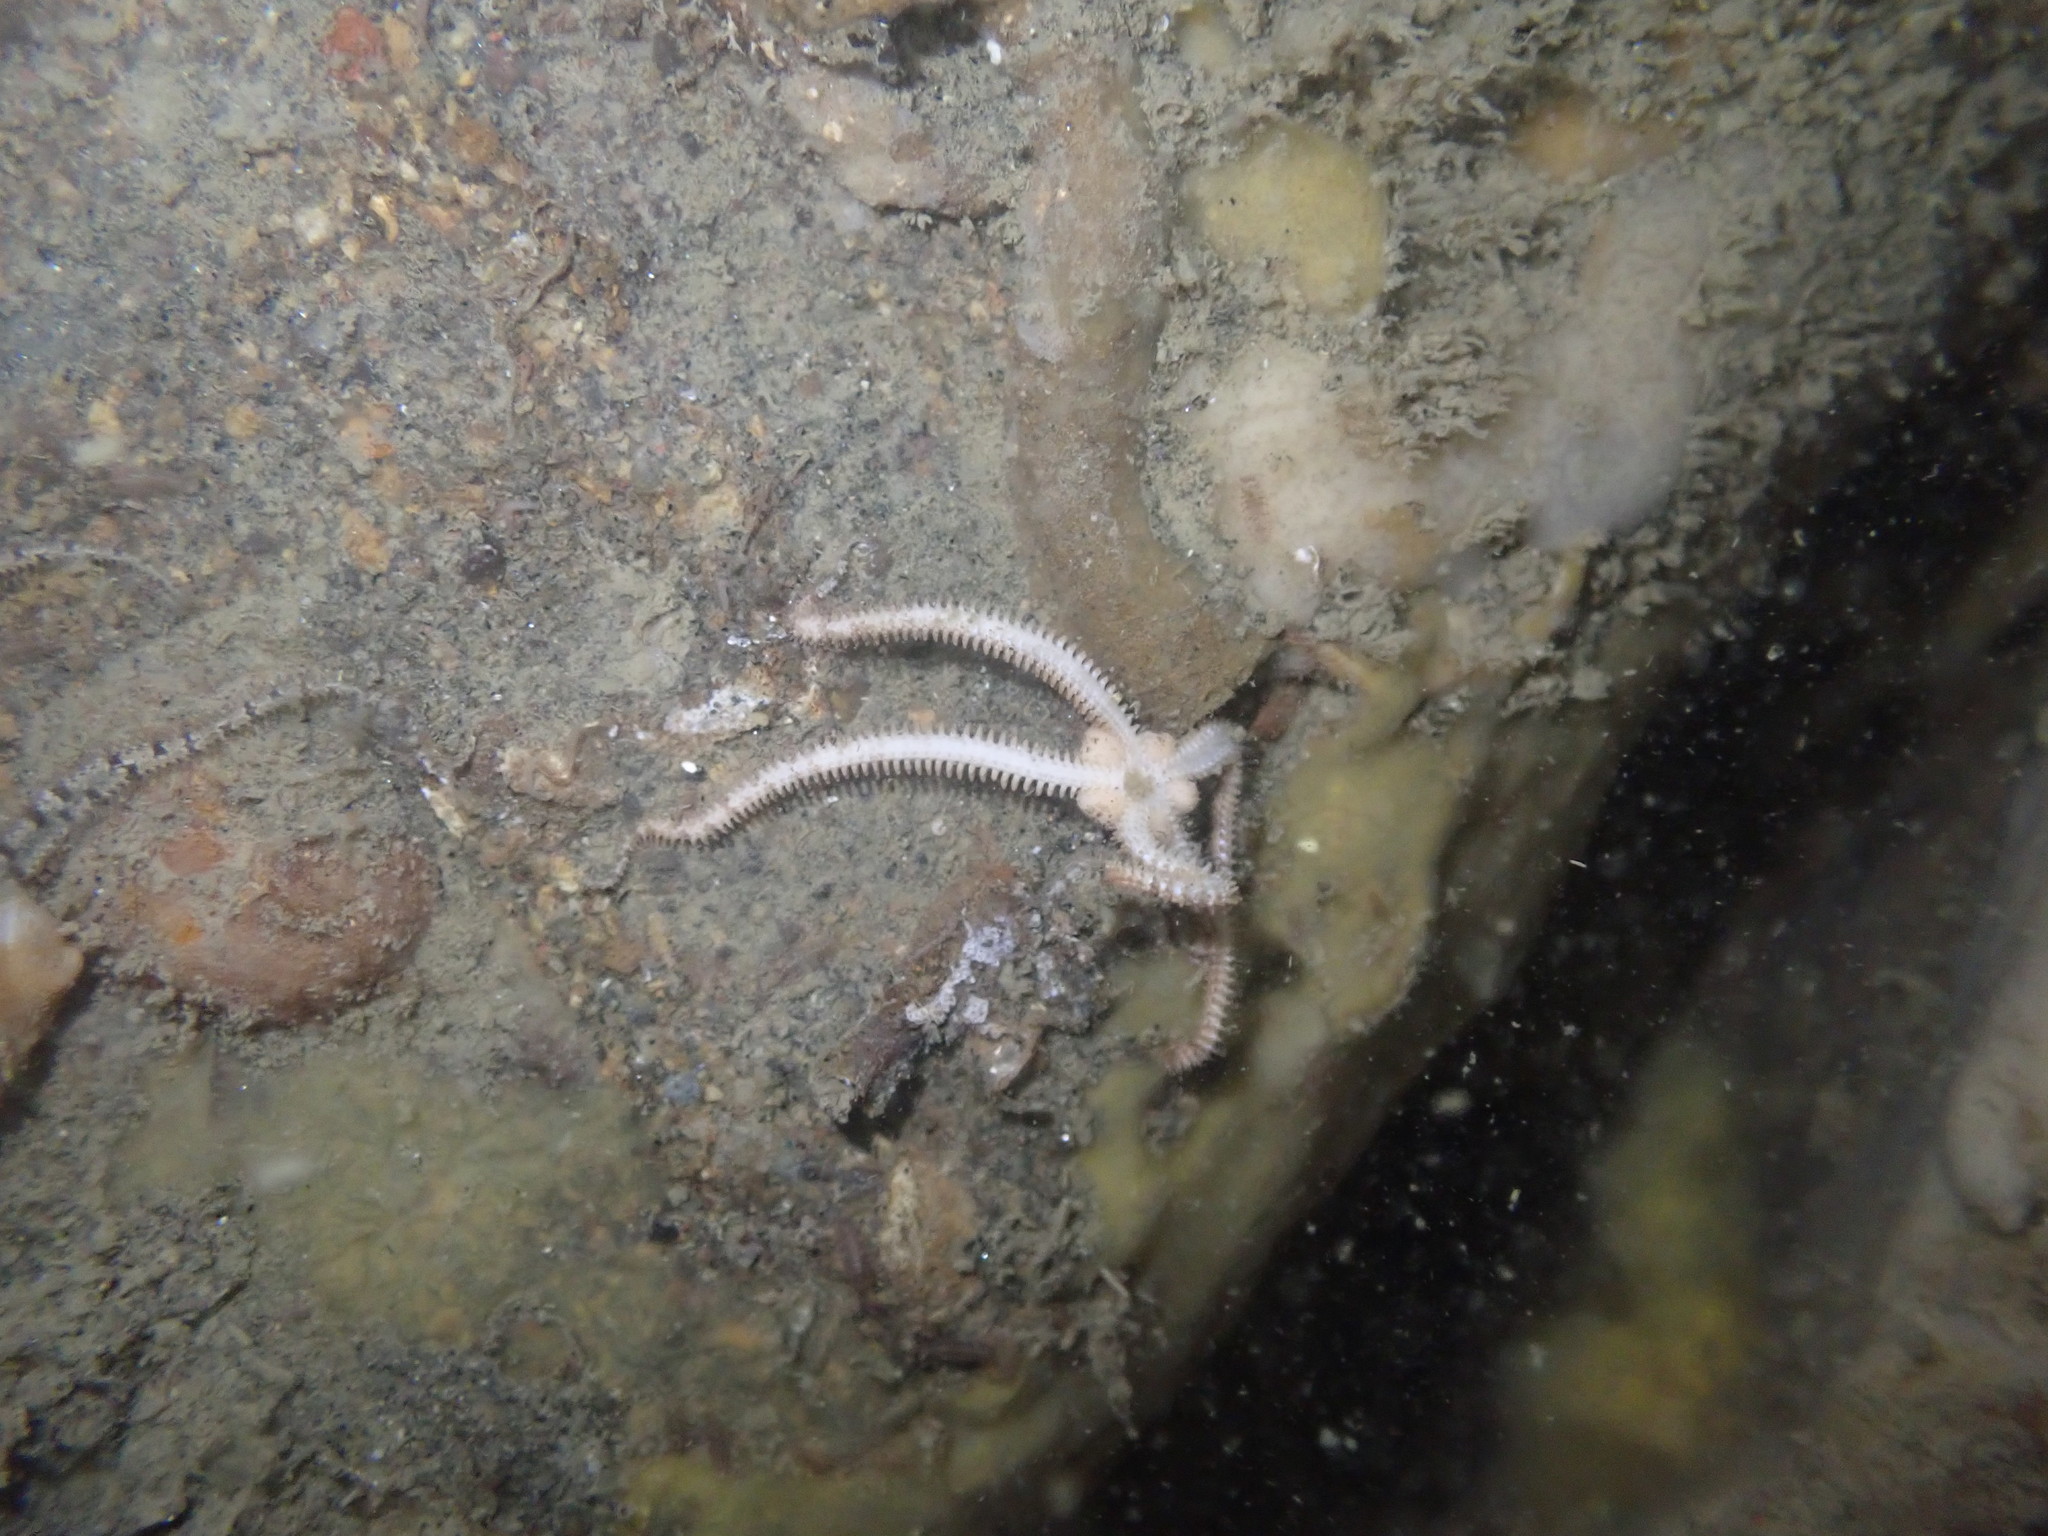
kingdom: Animalia
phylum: Echinodermata
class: Ophiuroidea
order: Amphilepidida
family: Ophiactidae
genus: Ophiactis
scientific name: Ophiactis resiliens
